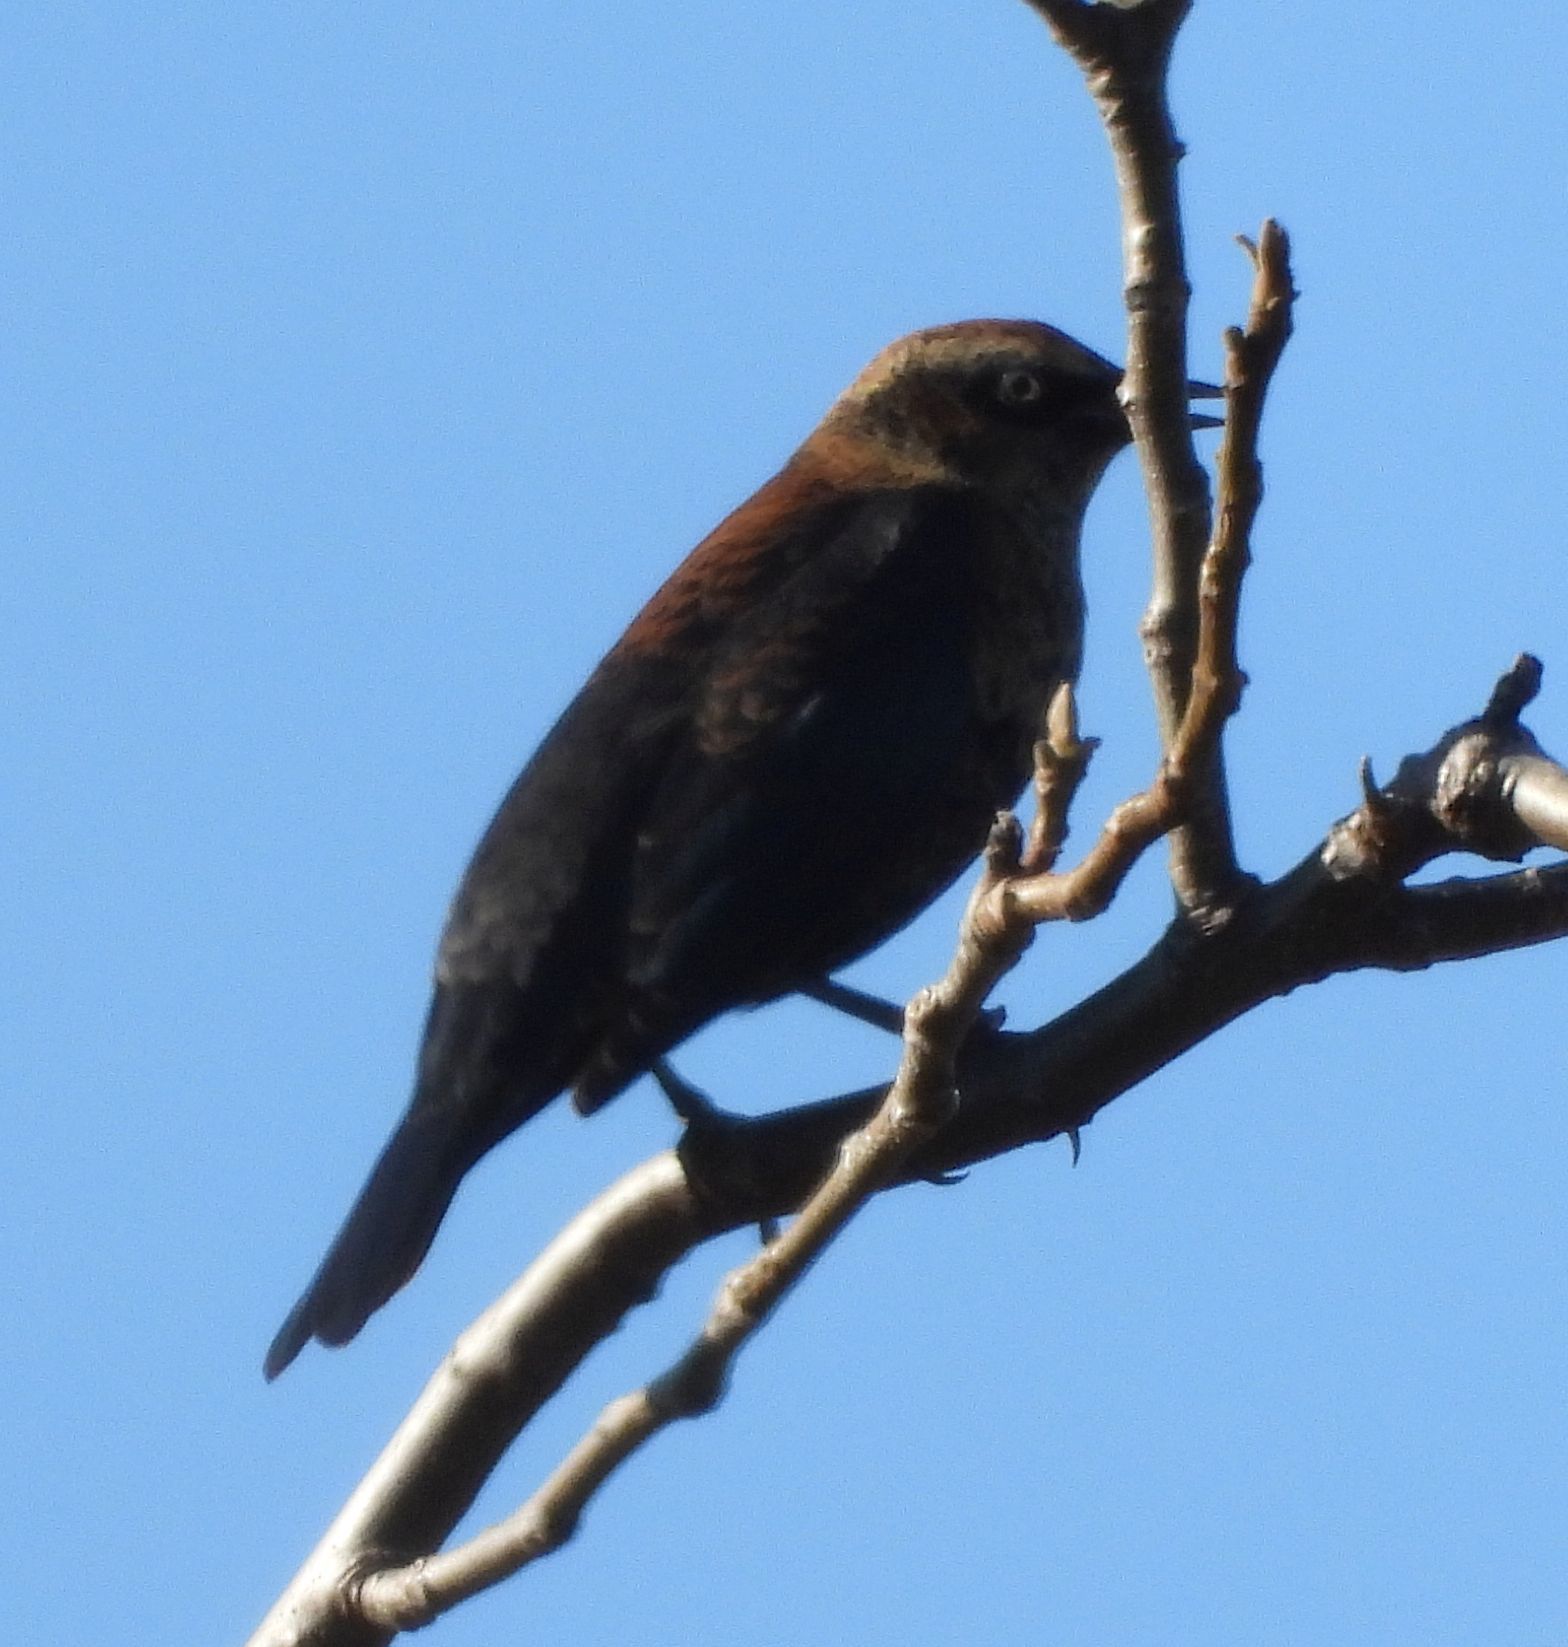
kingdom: Animalia
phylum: Chordata
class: Aves
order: Passeriformes
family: Icteridae
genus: Euphagus
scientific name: Euphagus carolinus
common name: Rusty blackbird
